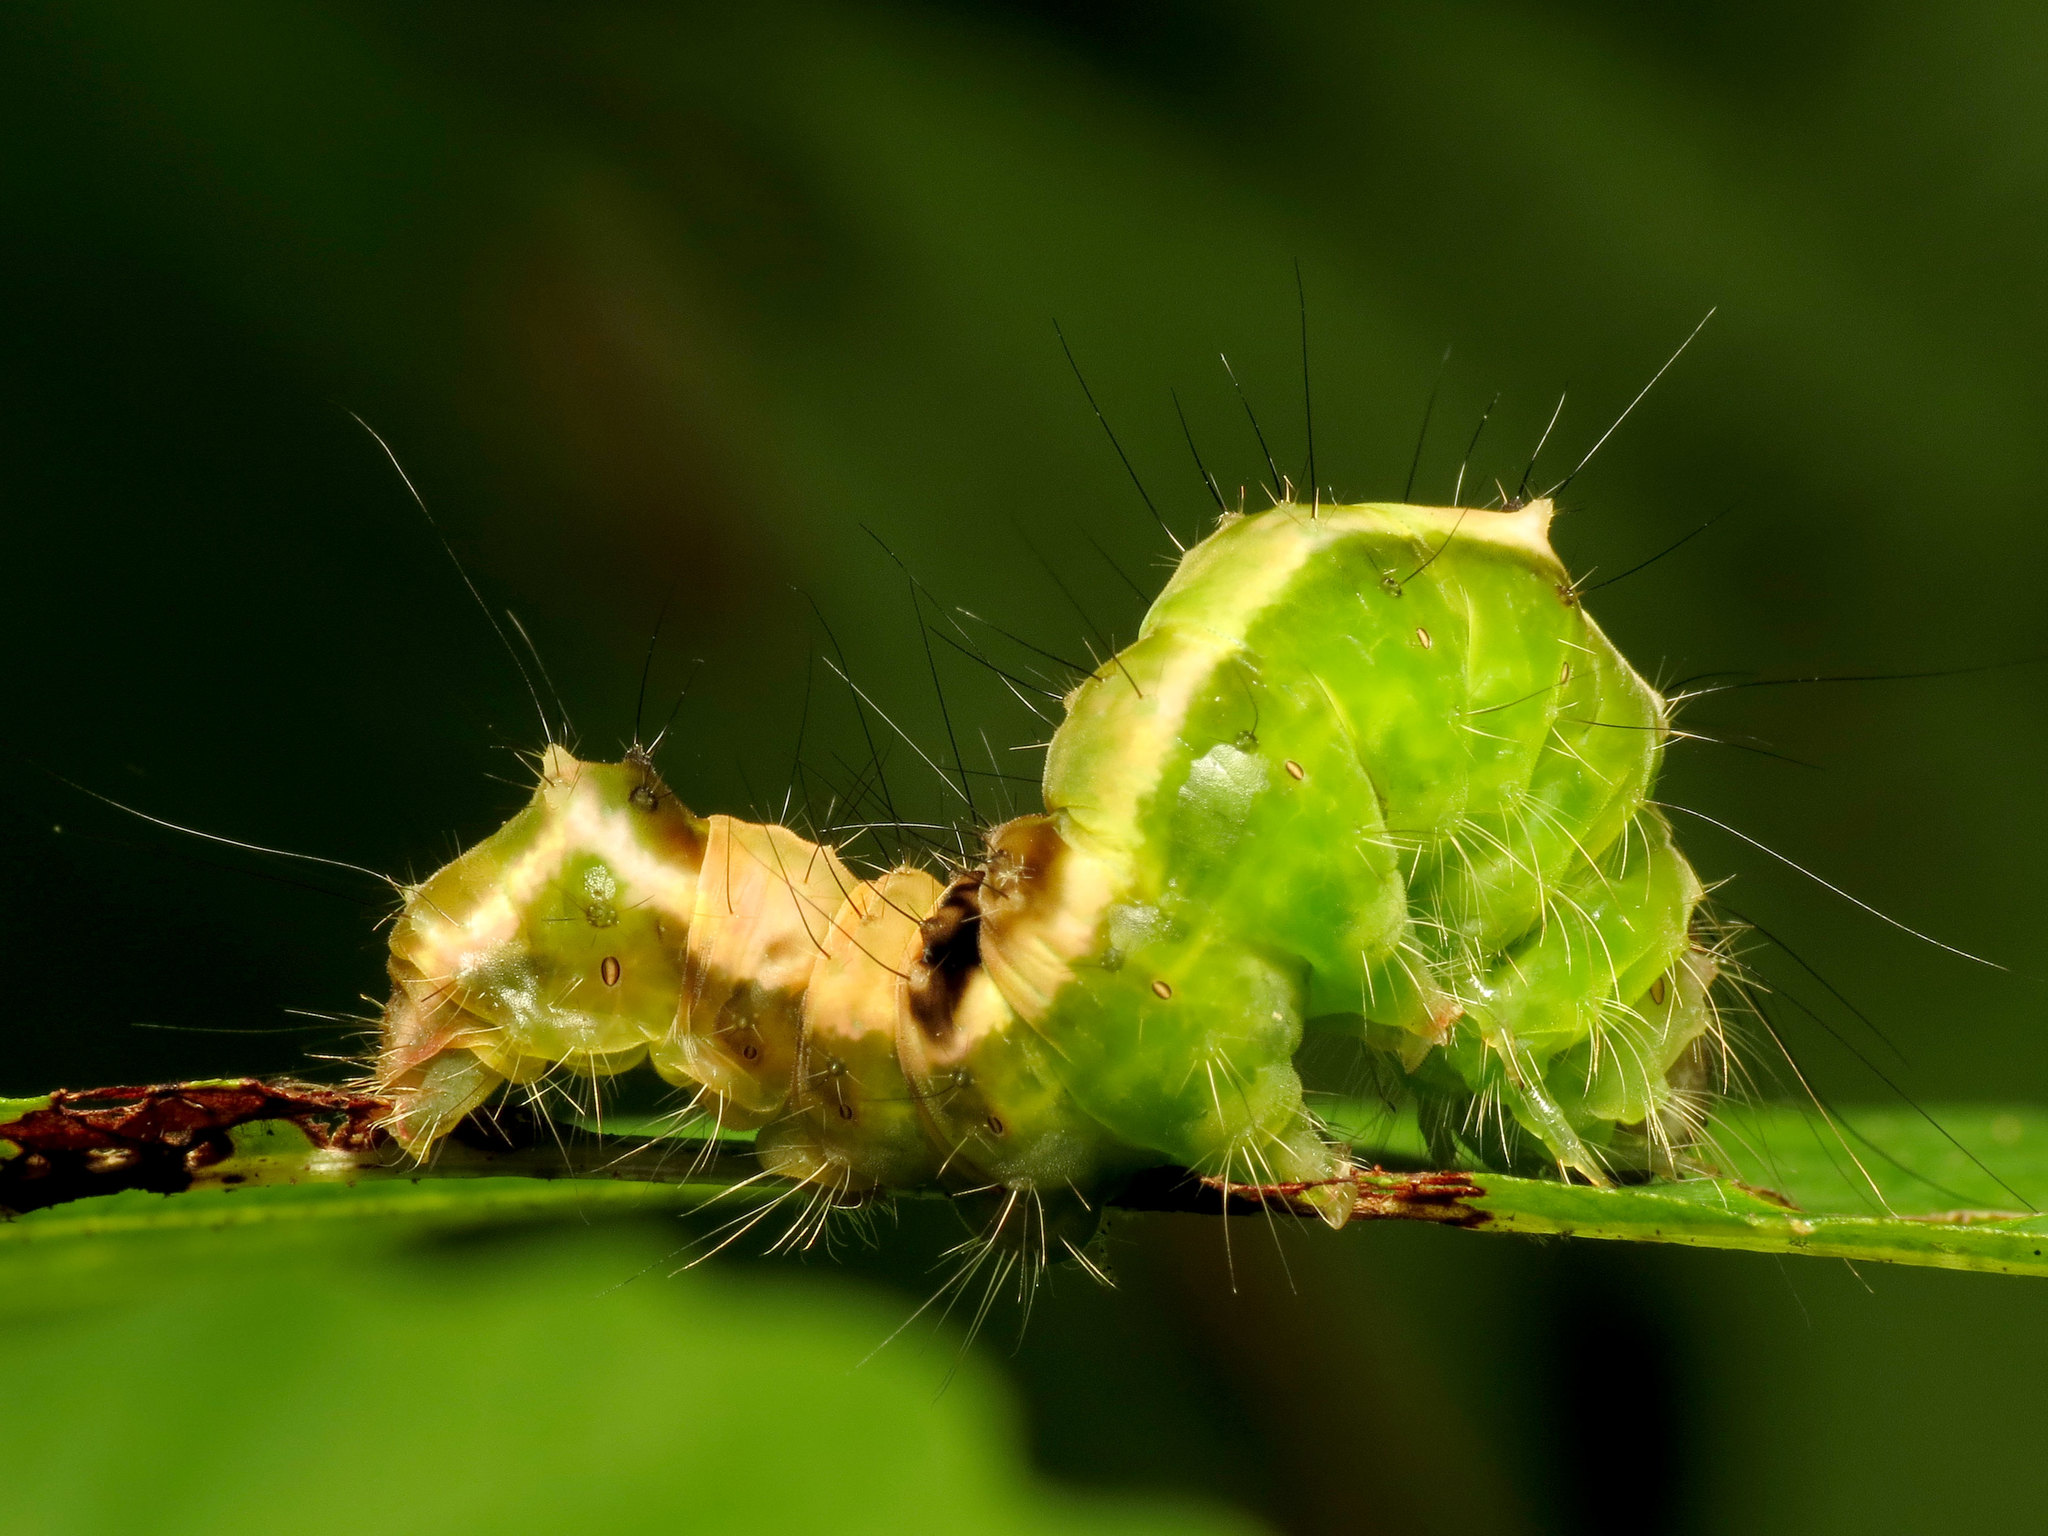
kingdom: Animalia
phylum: Arthropoda
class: Insecta
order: Lepidoptera
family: Noctuidae
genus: Acronicta
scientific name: Acronicta hamamelis
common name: Witch hazel dagger
